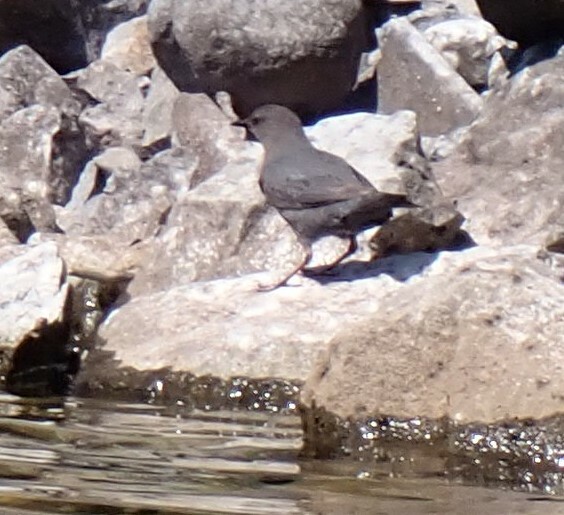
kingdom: Animalia
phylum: Chordata
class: Aves
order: Passeriformes
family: Cinclidae
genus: Cinclus
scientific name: Cinclus mexicanus
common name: American dipper
